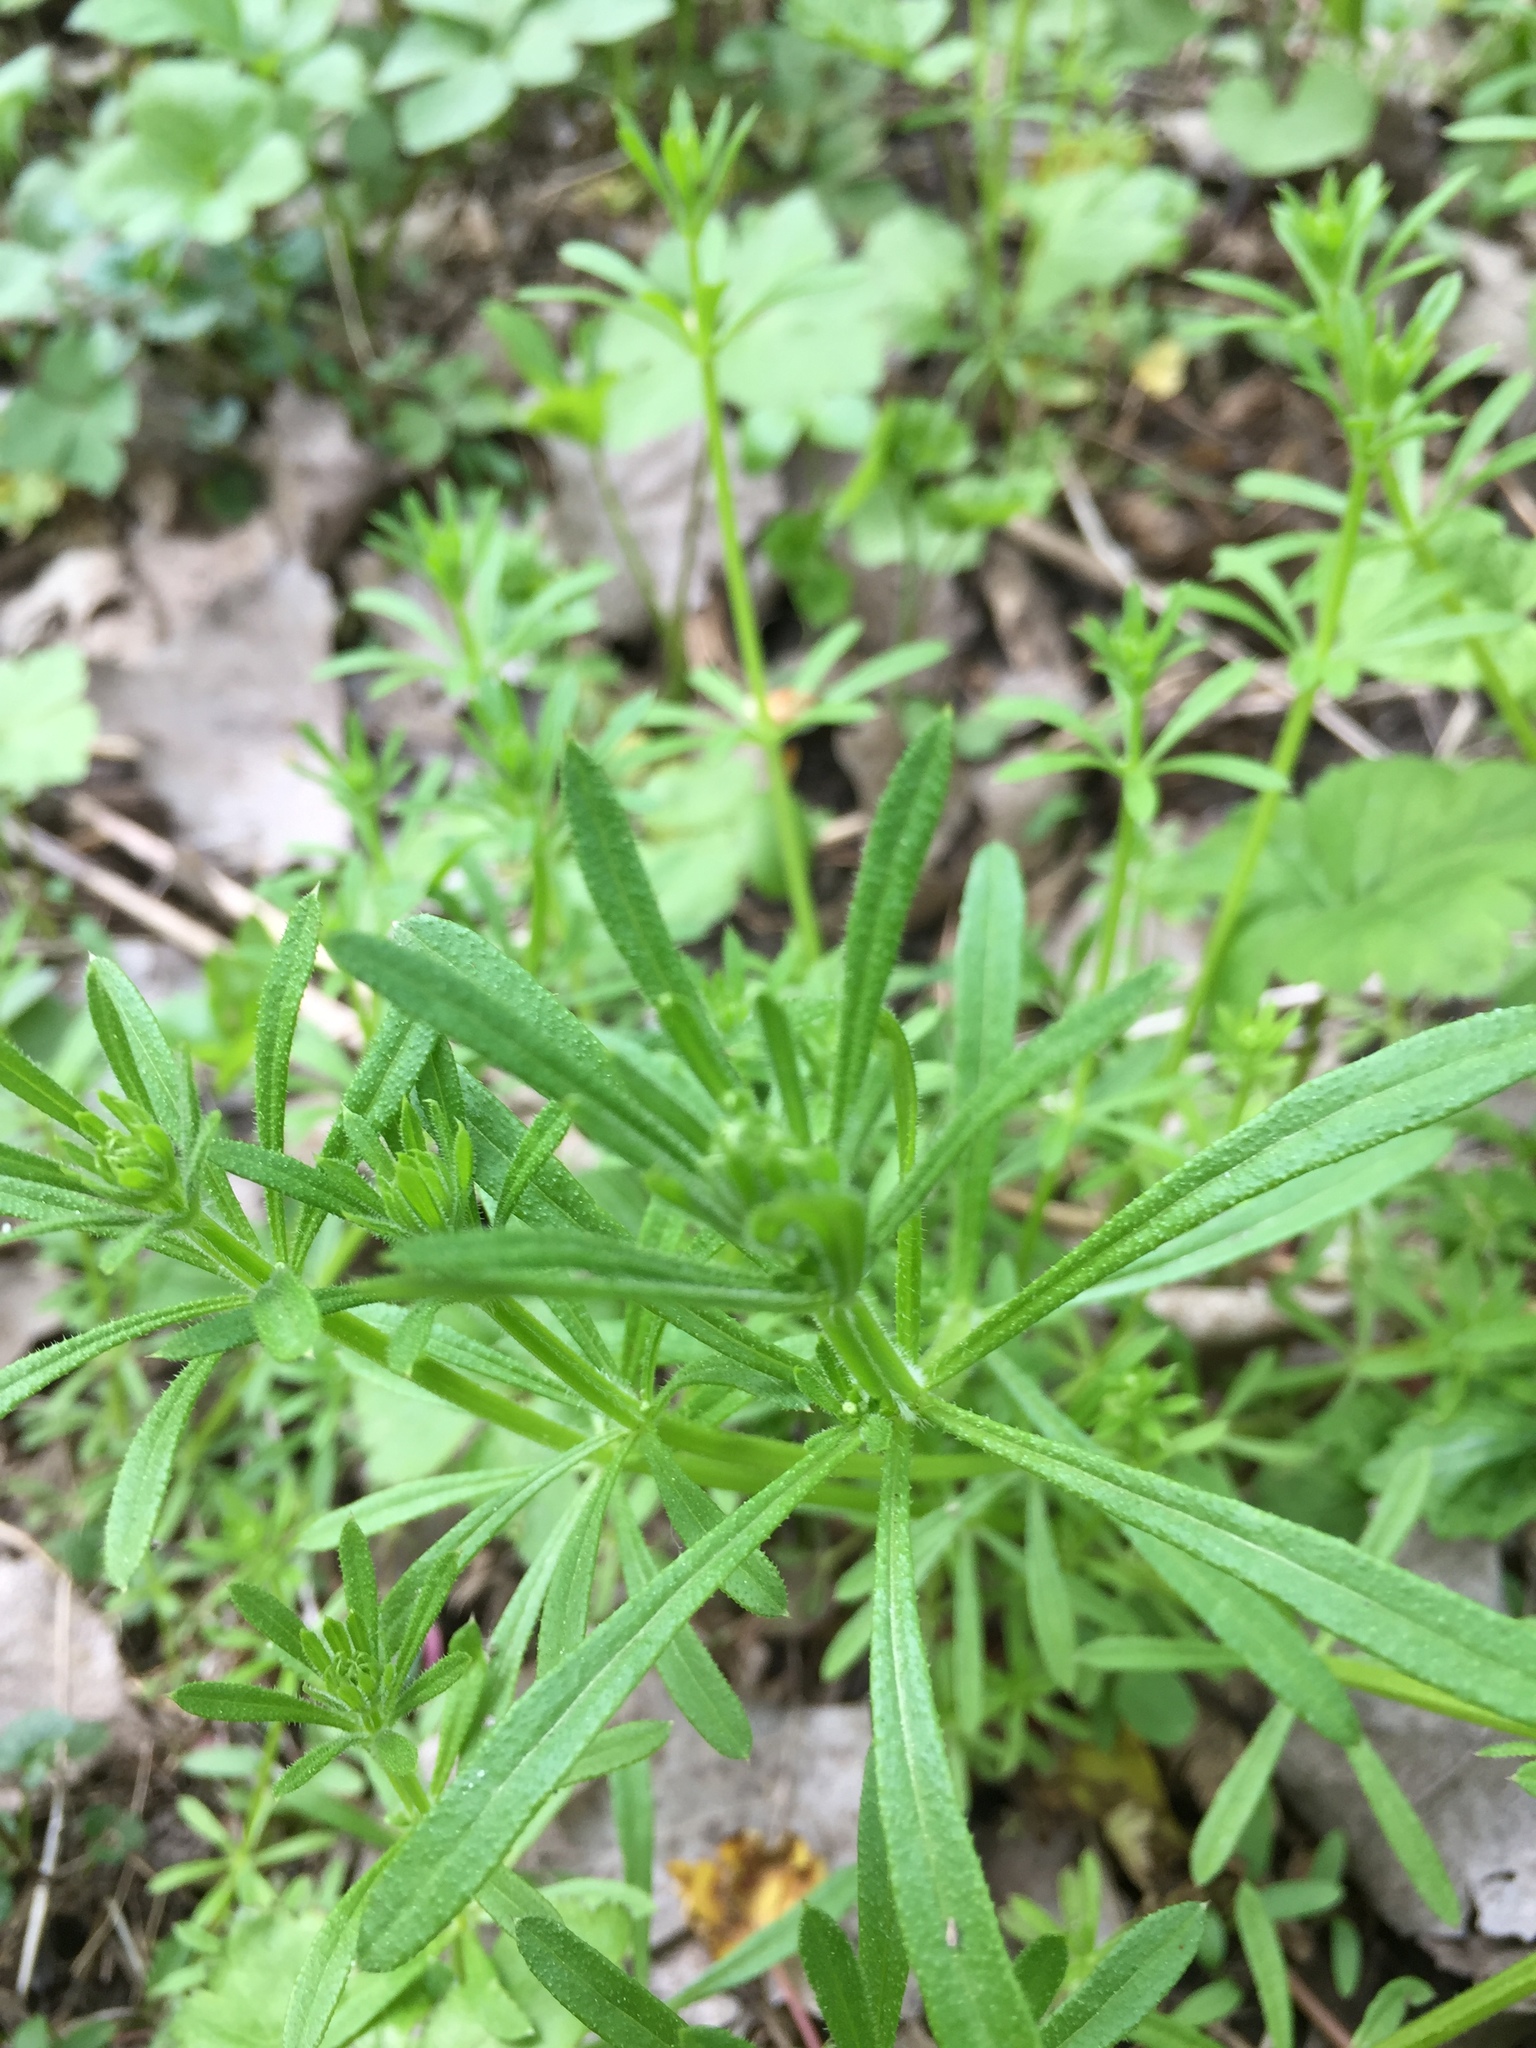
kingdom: Plantae
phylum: Tracheophyta
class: Magnoliopsida
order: Gentianales
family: Rubiaceae
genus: Galium
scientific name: Galium aparine
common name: Cleavers
